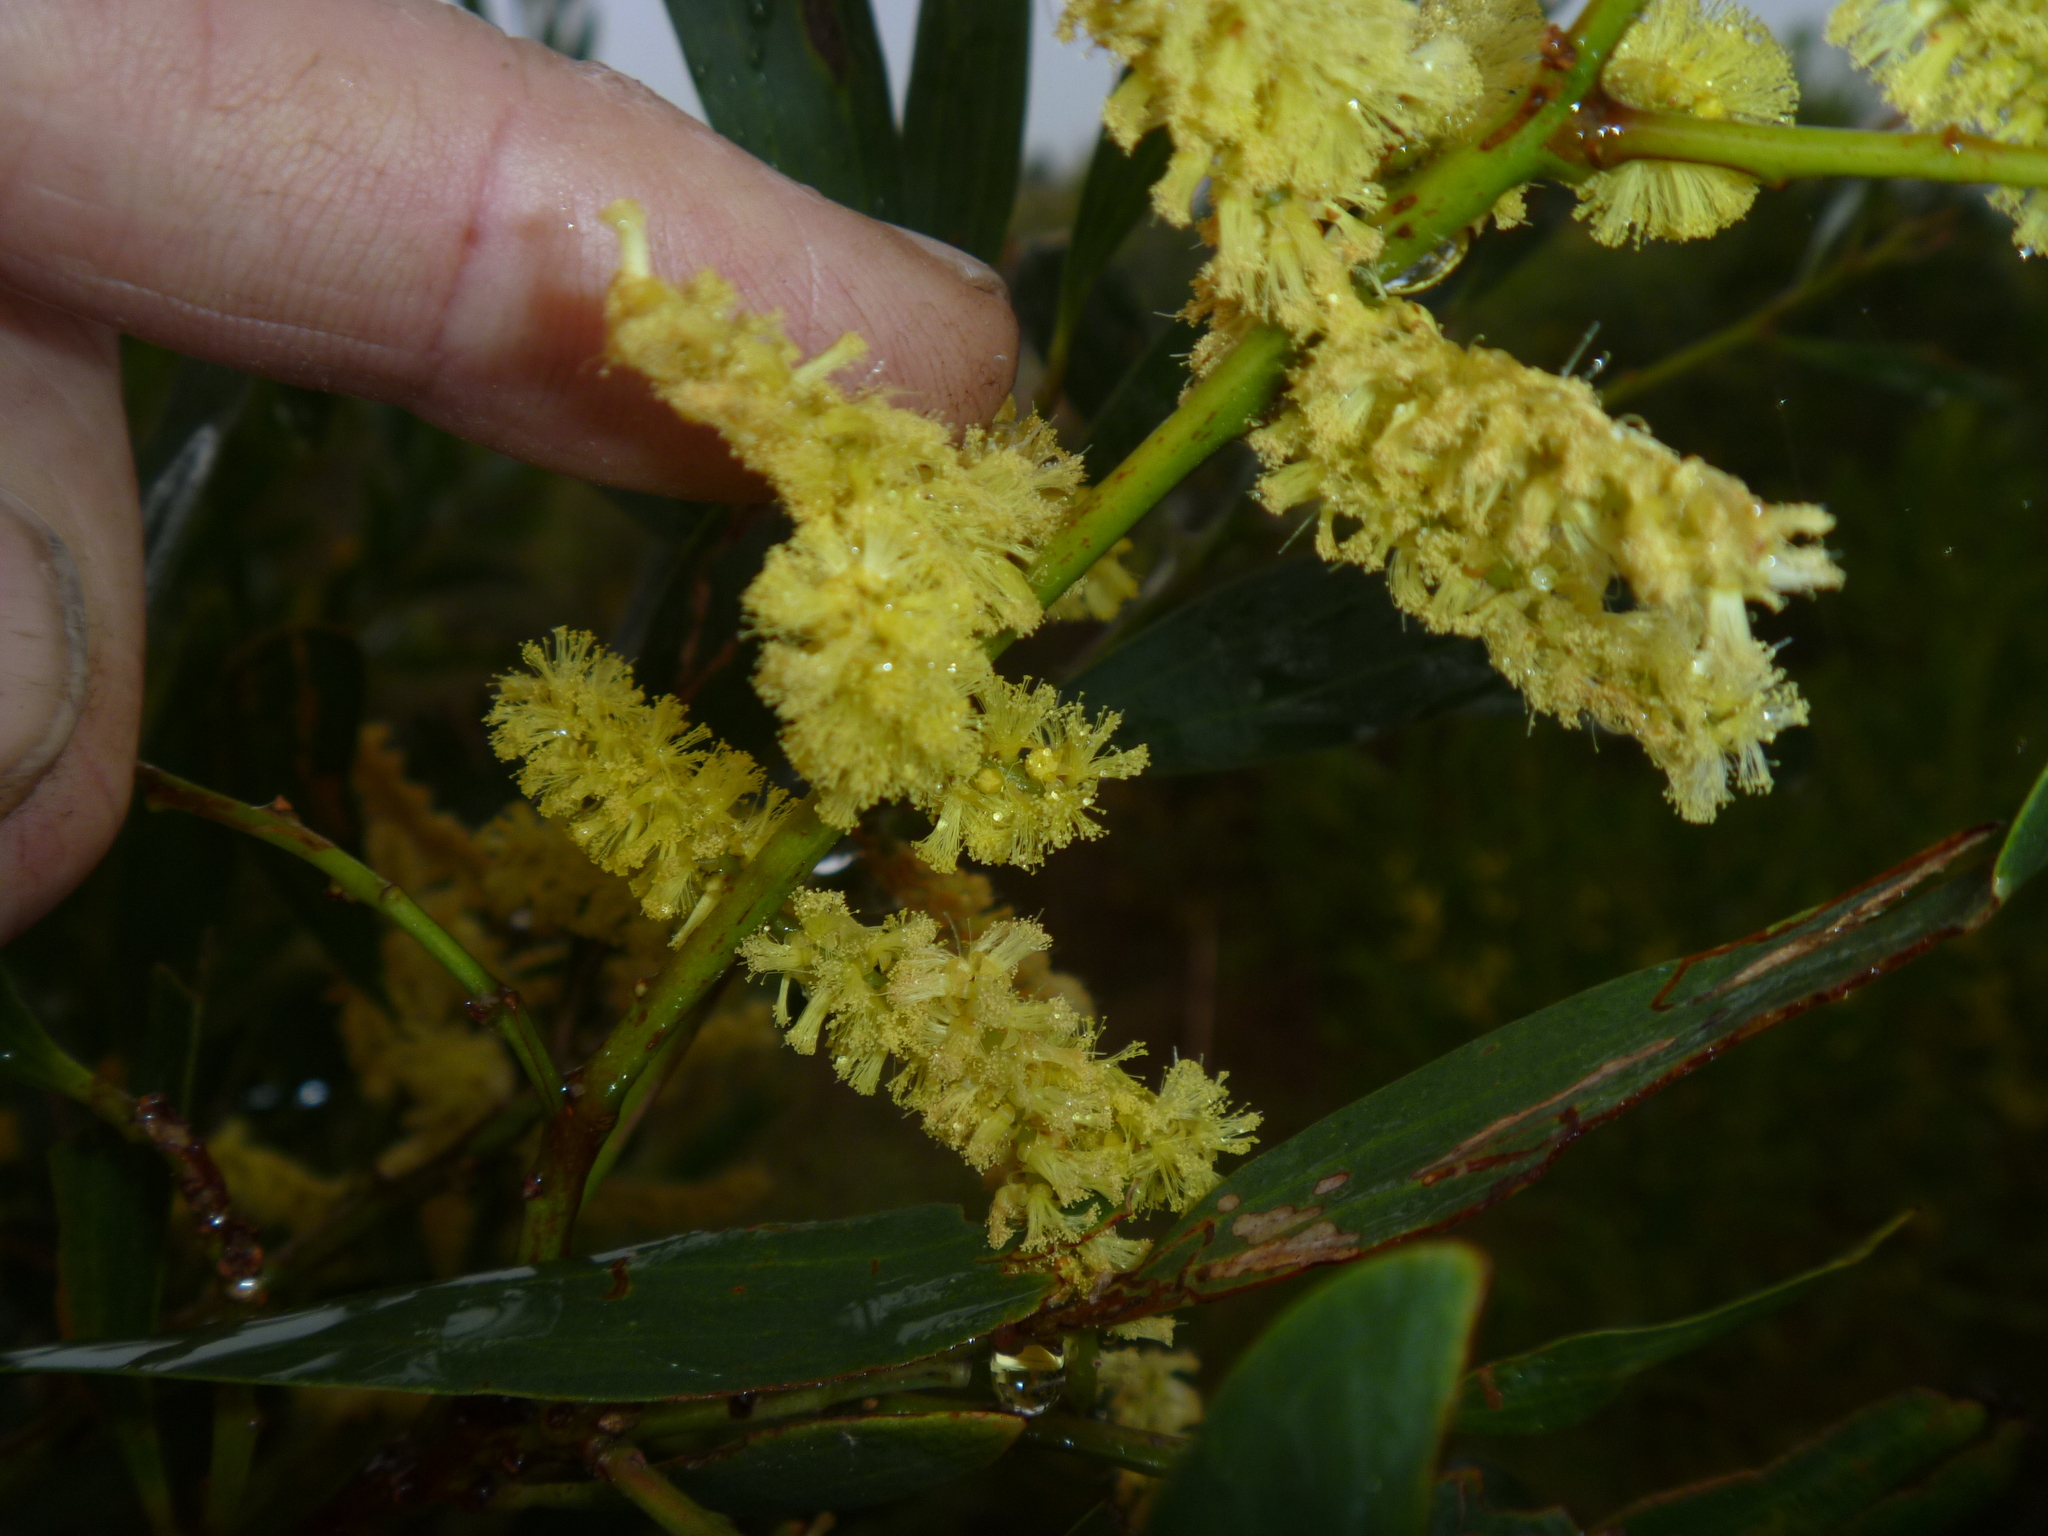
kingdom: Plantae
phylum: Tracheophyta
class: Magnoliopsida
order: Fabales
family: Fabaceae
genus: Acacia
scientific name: Acacia longifolia
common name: Sydney golden wattle
